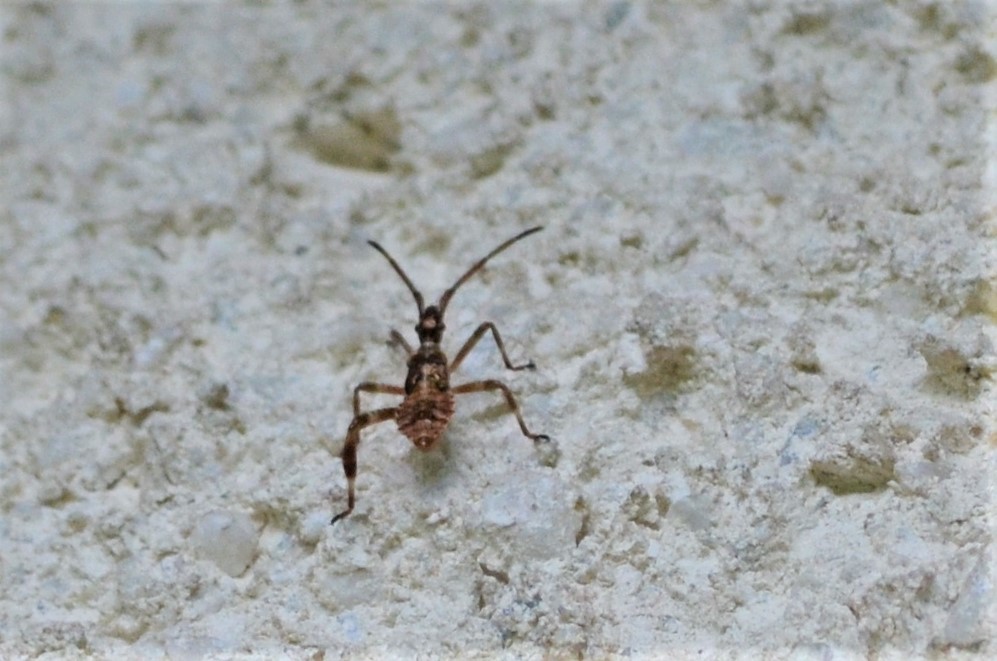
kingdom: Animalia
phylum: Arthropoda
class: Insecta
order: Hemiptera
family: Coreidae
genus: Leptoglossus
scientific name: Leptoglossus occidentalis
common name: Western conifer-seed bug
